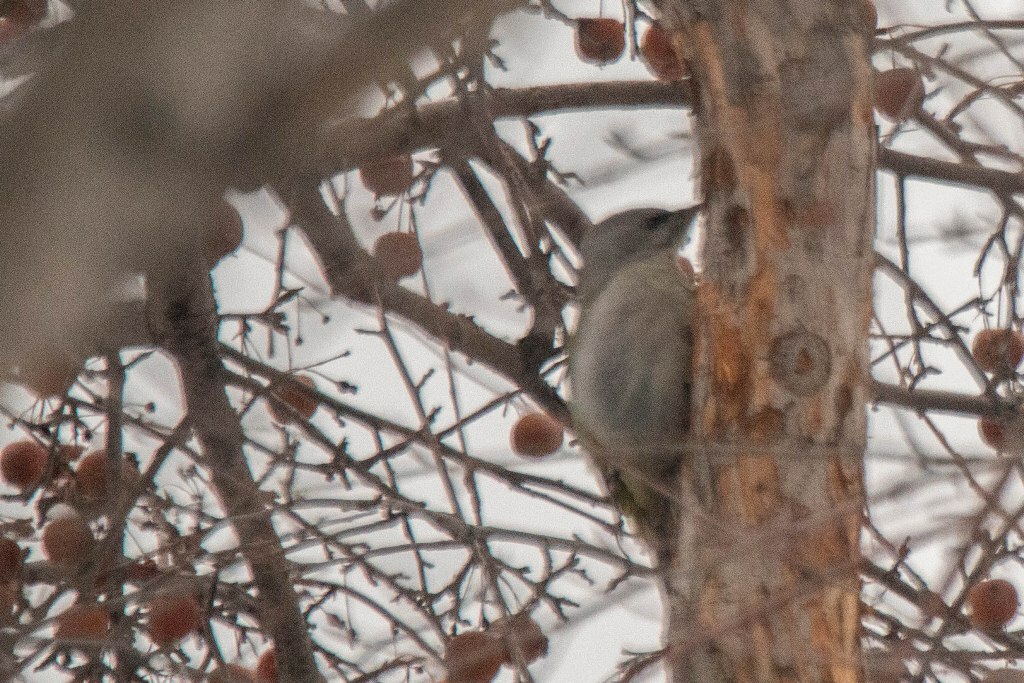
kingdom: Animalia
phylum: Chordata
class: Aves
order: Piciformes
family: Picidae
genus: Picus
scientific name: Picus canus
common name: Grey-headed woodpecker
